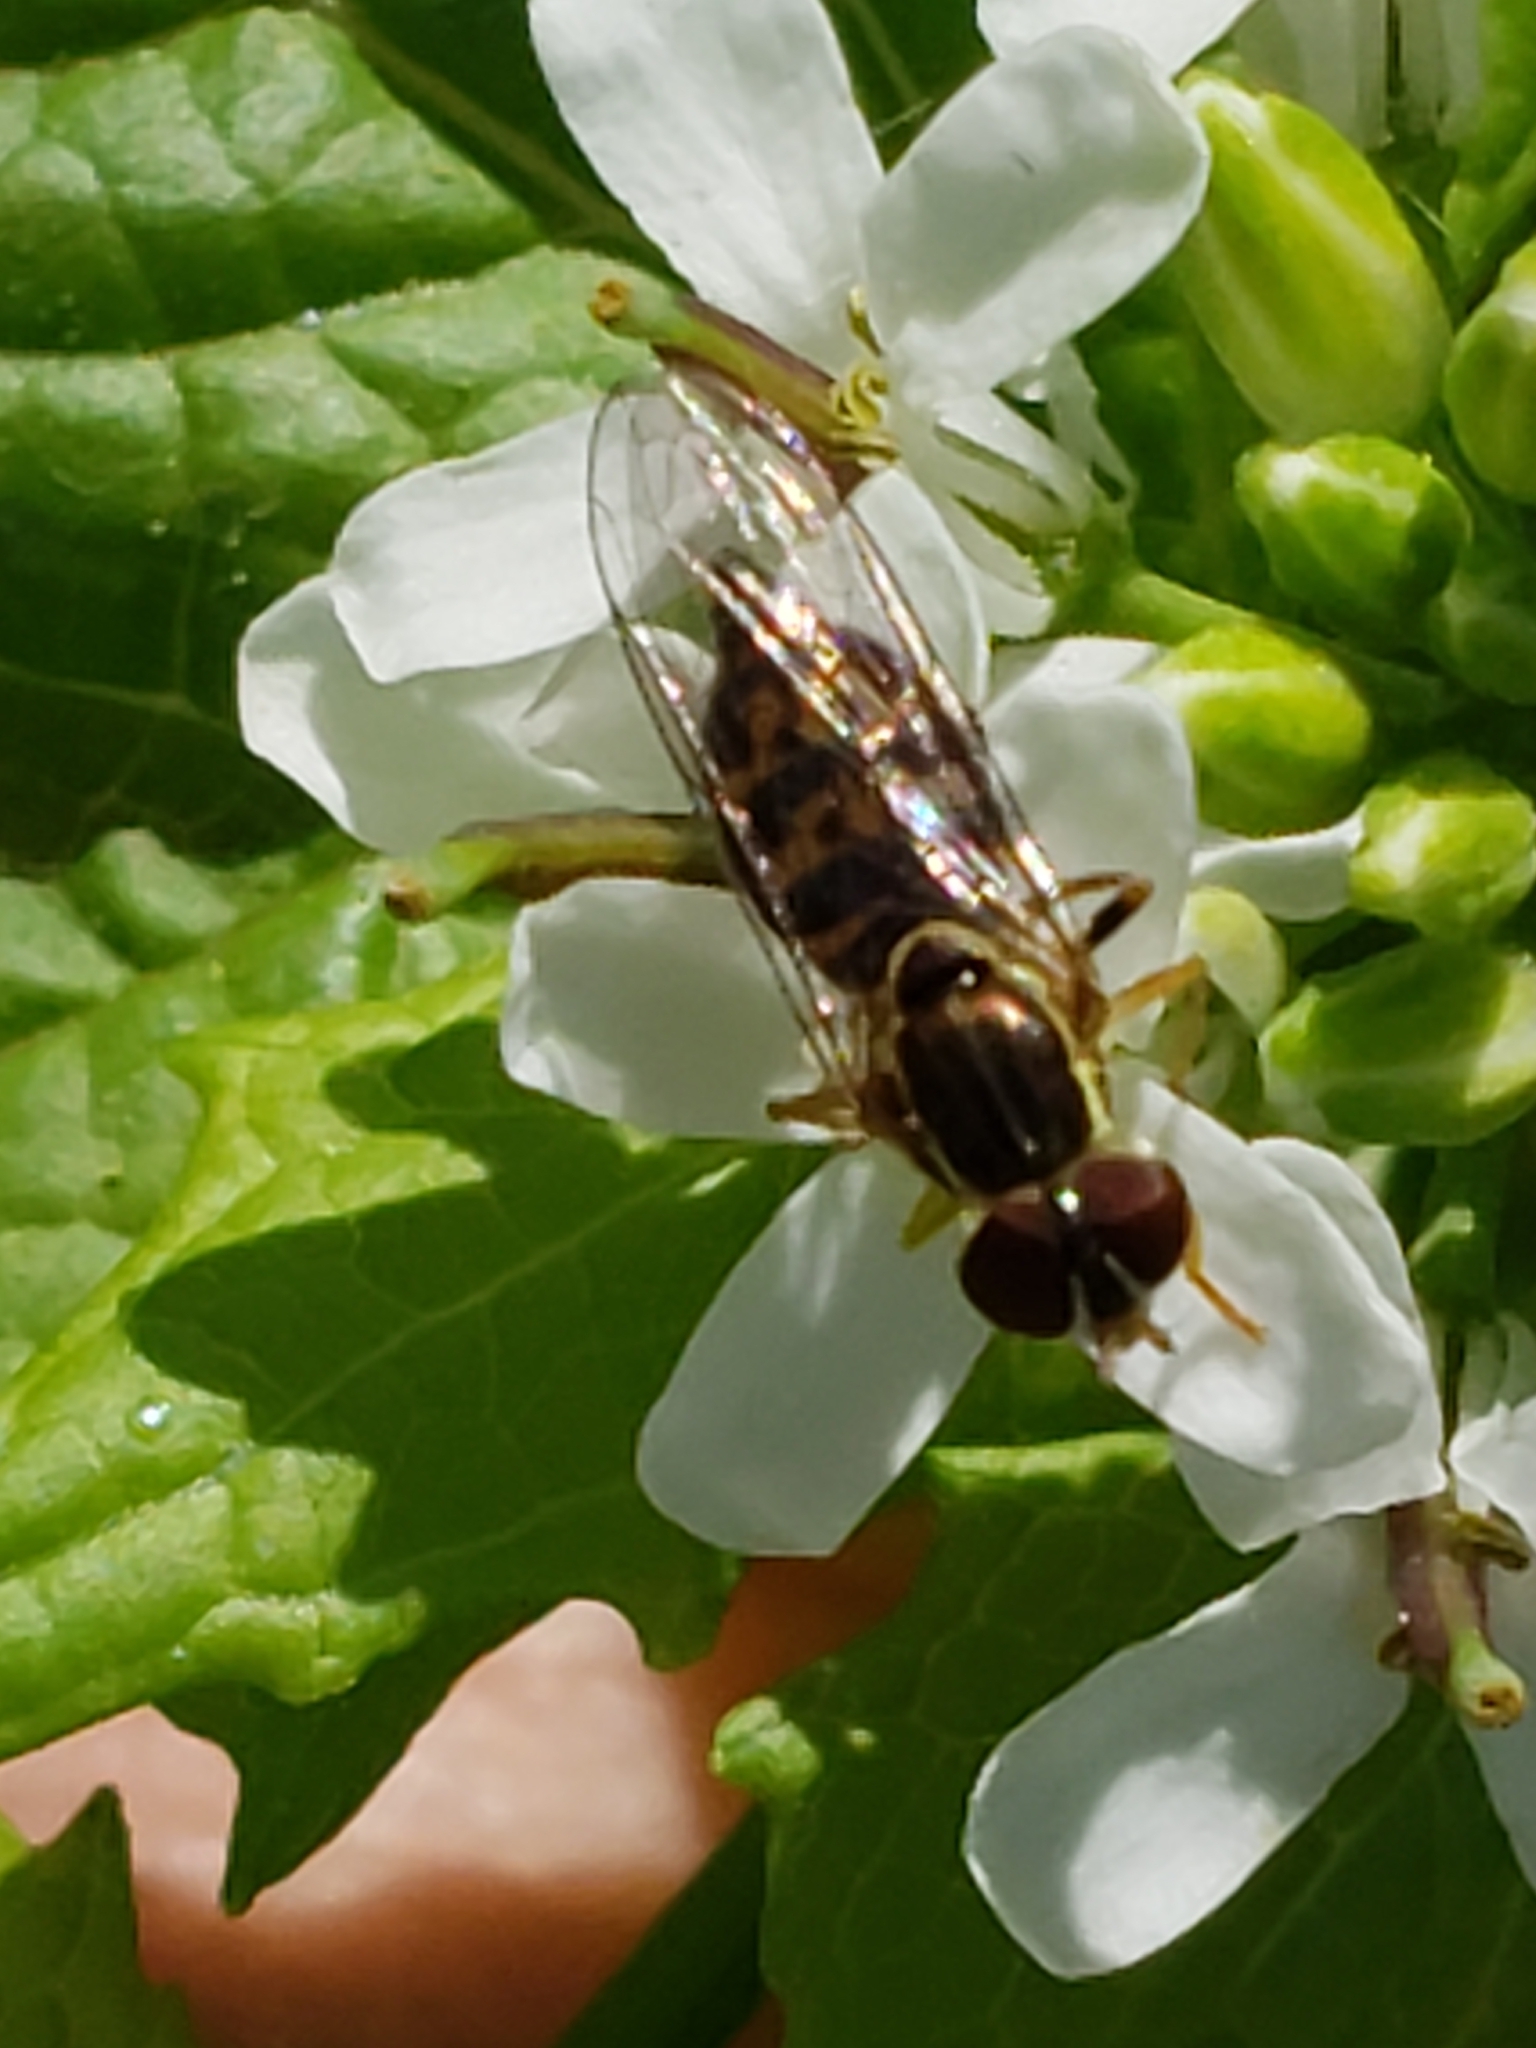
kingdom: Animalia
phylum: Arthropoda
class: Insecta
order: Diptera
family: Syrphidae
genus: Toxomerus
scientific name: Toxomerus geminatus
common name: Eastern calligrapher
